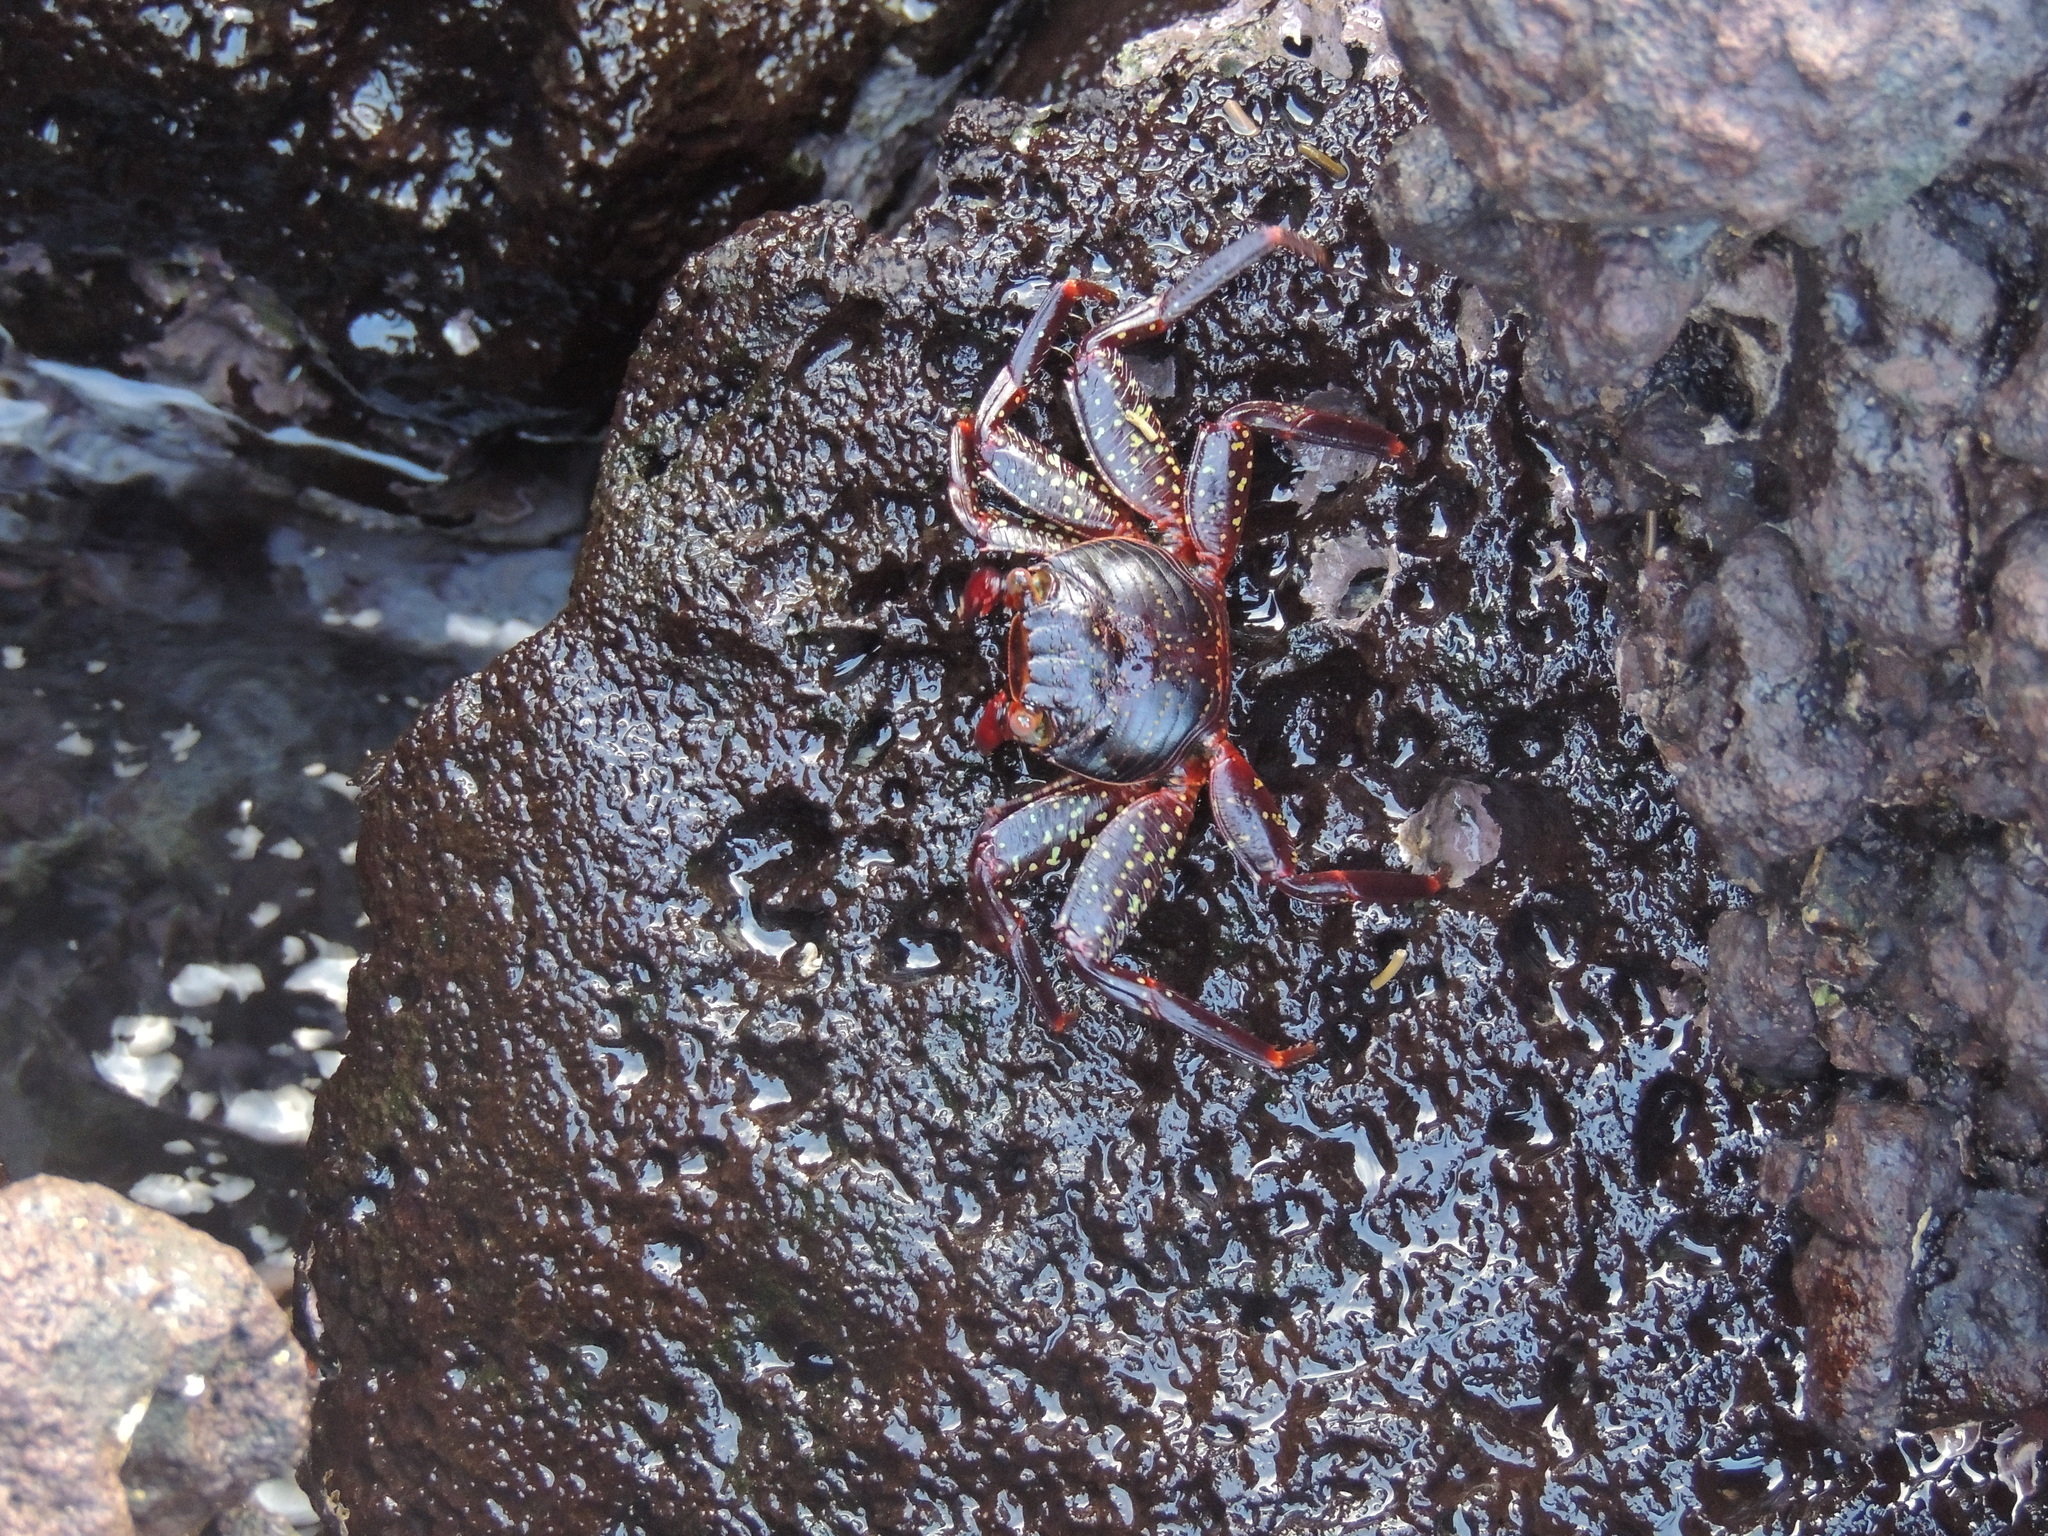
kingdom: Animalia
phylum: Arthropoda
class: Malacostraca
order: Decapoda
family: Grapsidae
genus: Grapsus
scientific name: Grapsus grapsus
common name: Sally lightfoot
